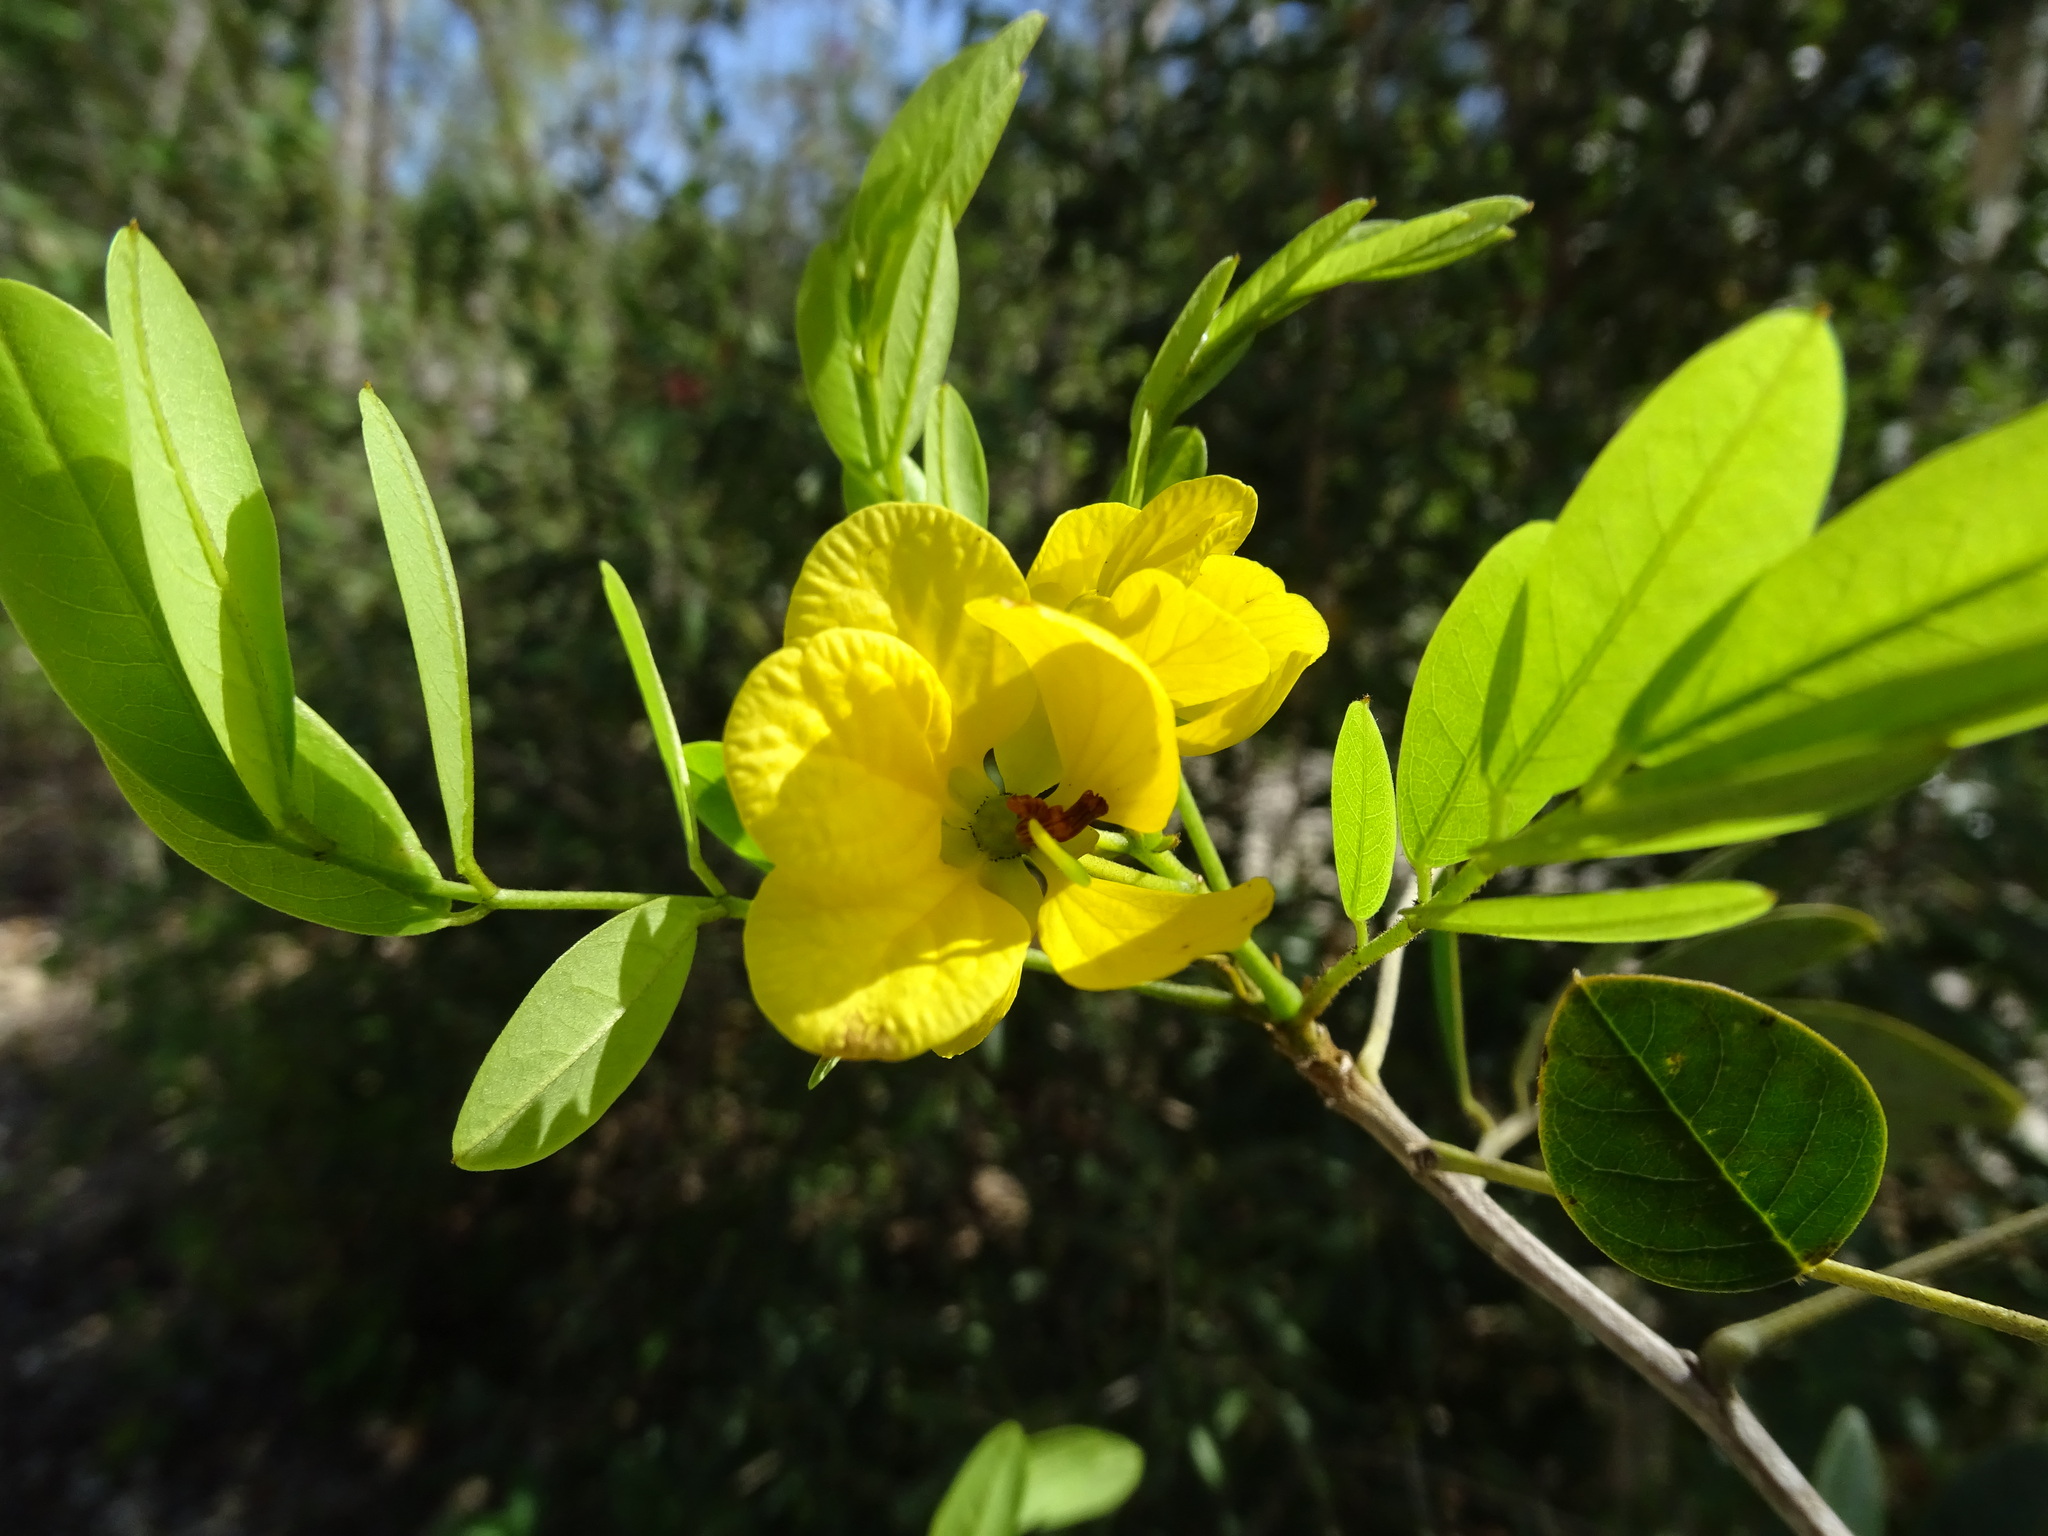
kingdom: Plantae
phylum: Tracheophyta
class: Magnoliopsida
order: Fabales
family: Fabaceae
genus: Senna
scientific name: Senna atomaria
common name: Flor de san jose
